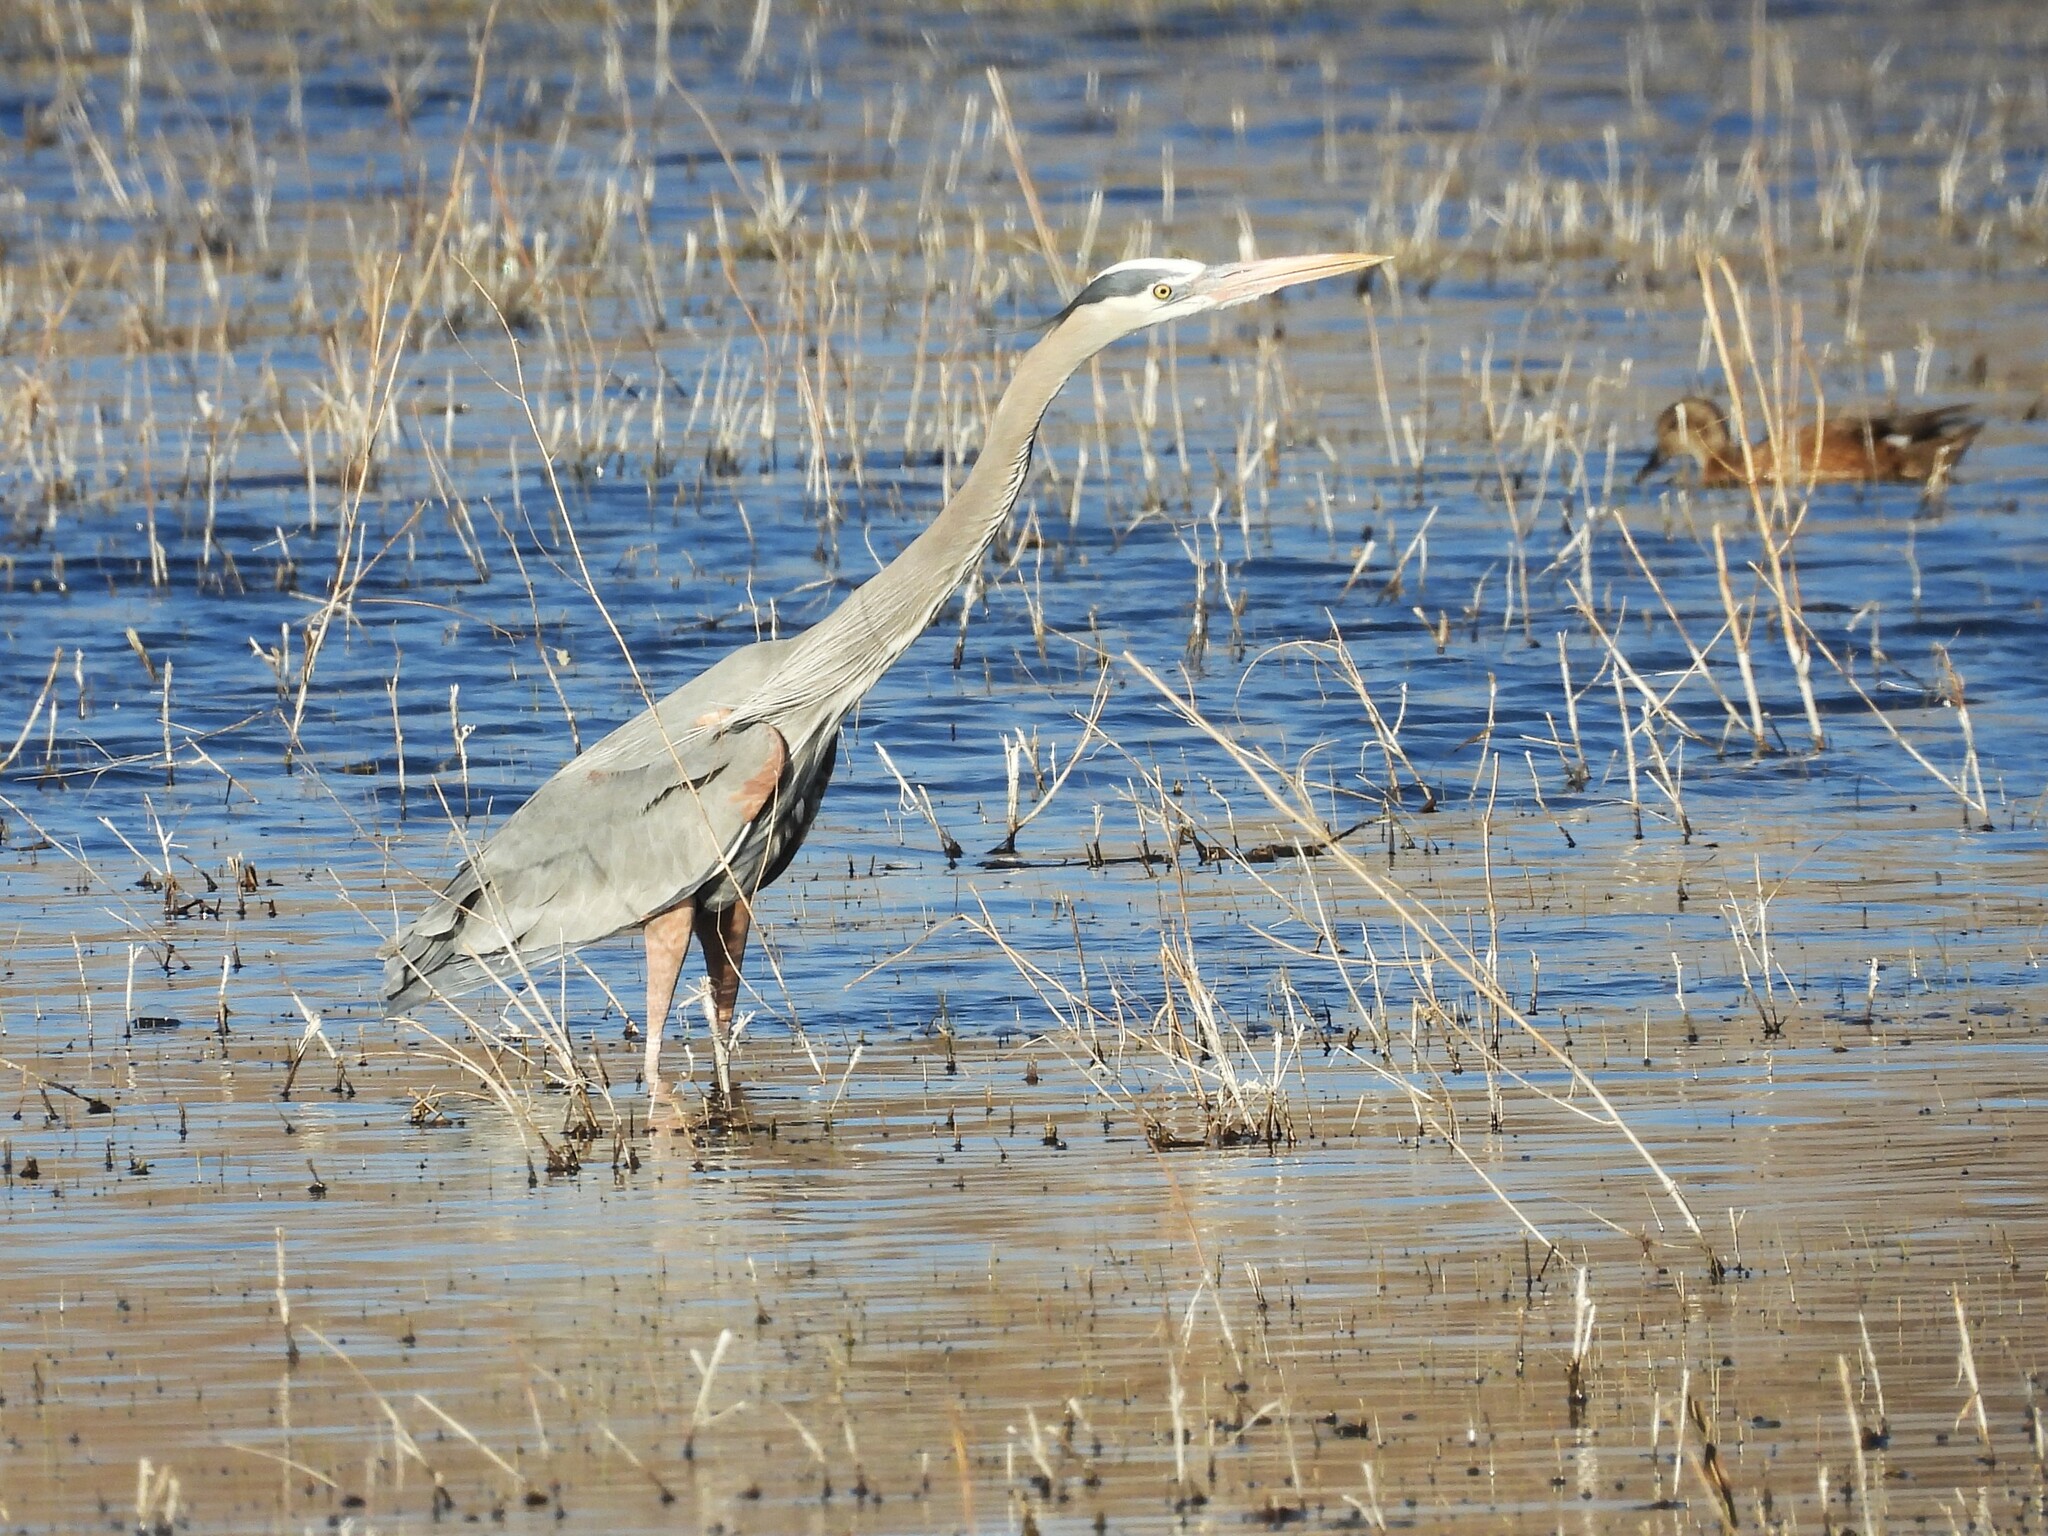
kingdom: Animalia
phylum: Chordata
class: Aves
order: Pelecaniformes
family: Ardeidae
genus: Ardea
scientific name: Ardea herodias
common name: Great blue heron
